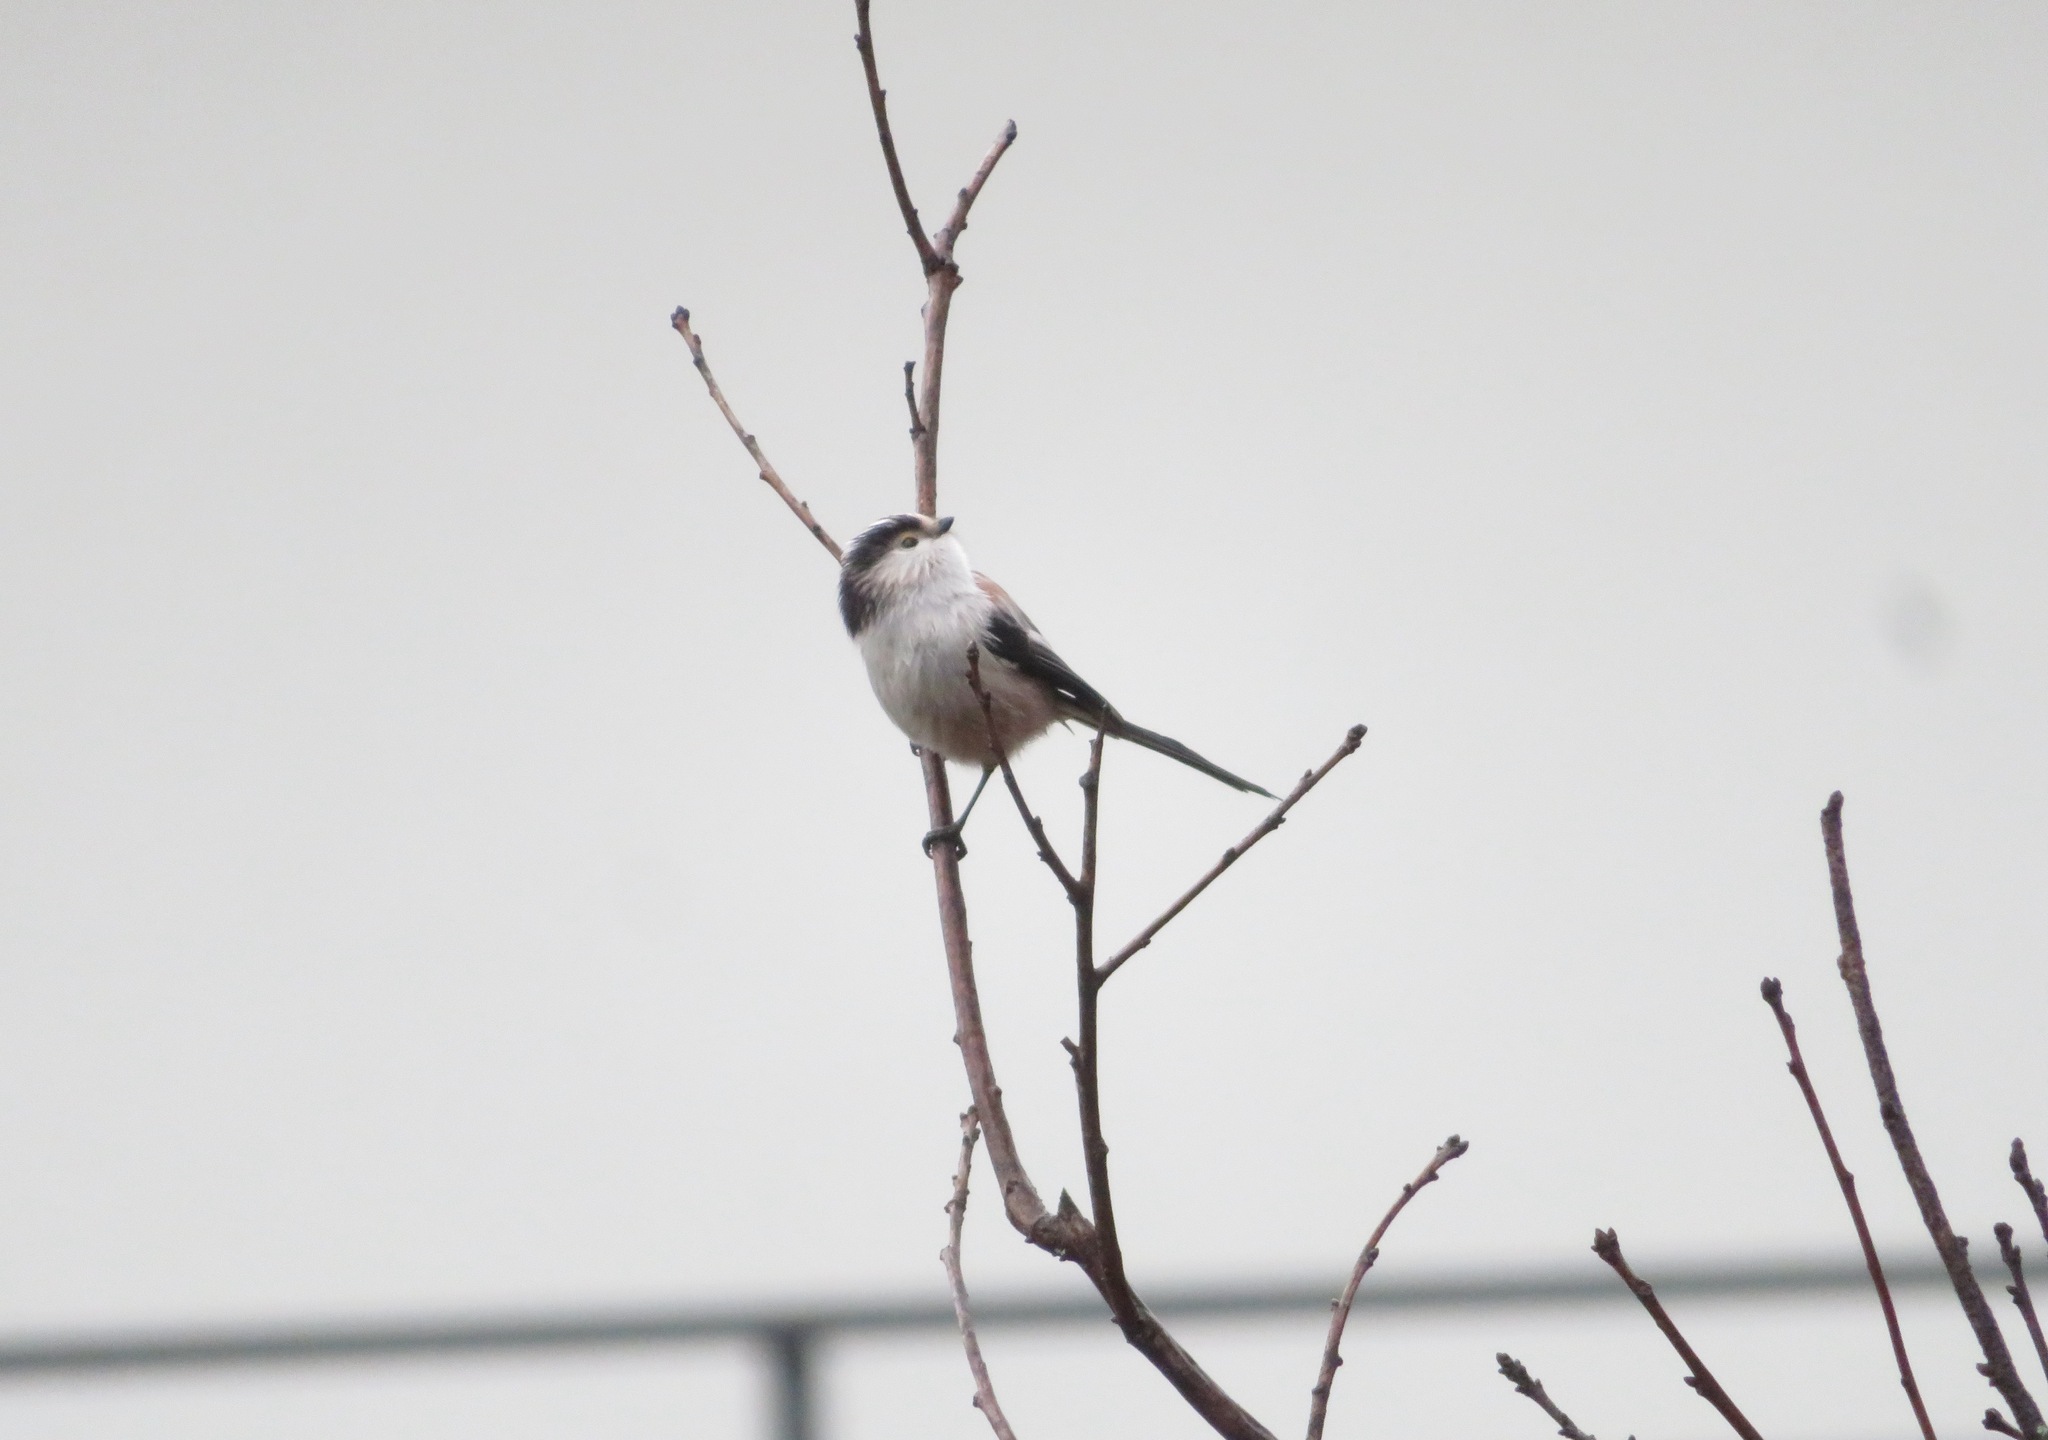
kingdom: Animalia
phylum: Chordata
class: Aves
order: Passeriformes
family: Aegithalidae
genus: Aegithalos
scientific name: Aegithalos caudatus
